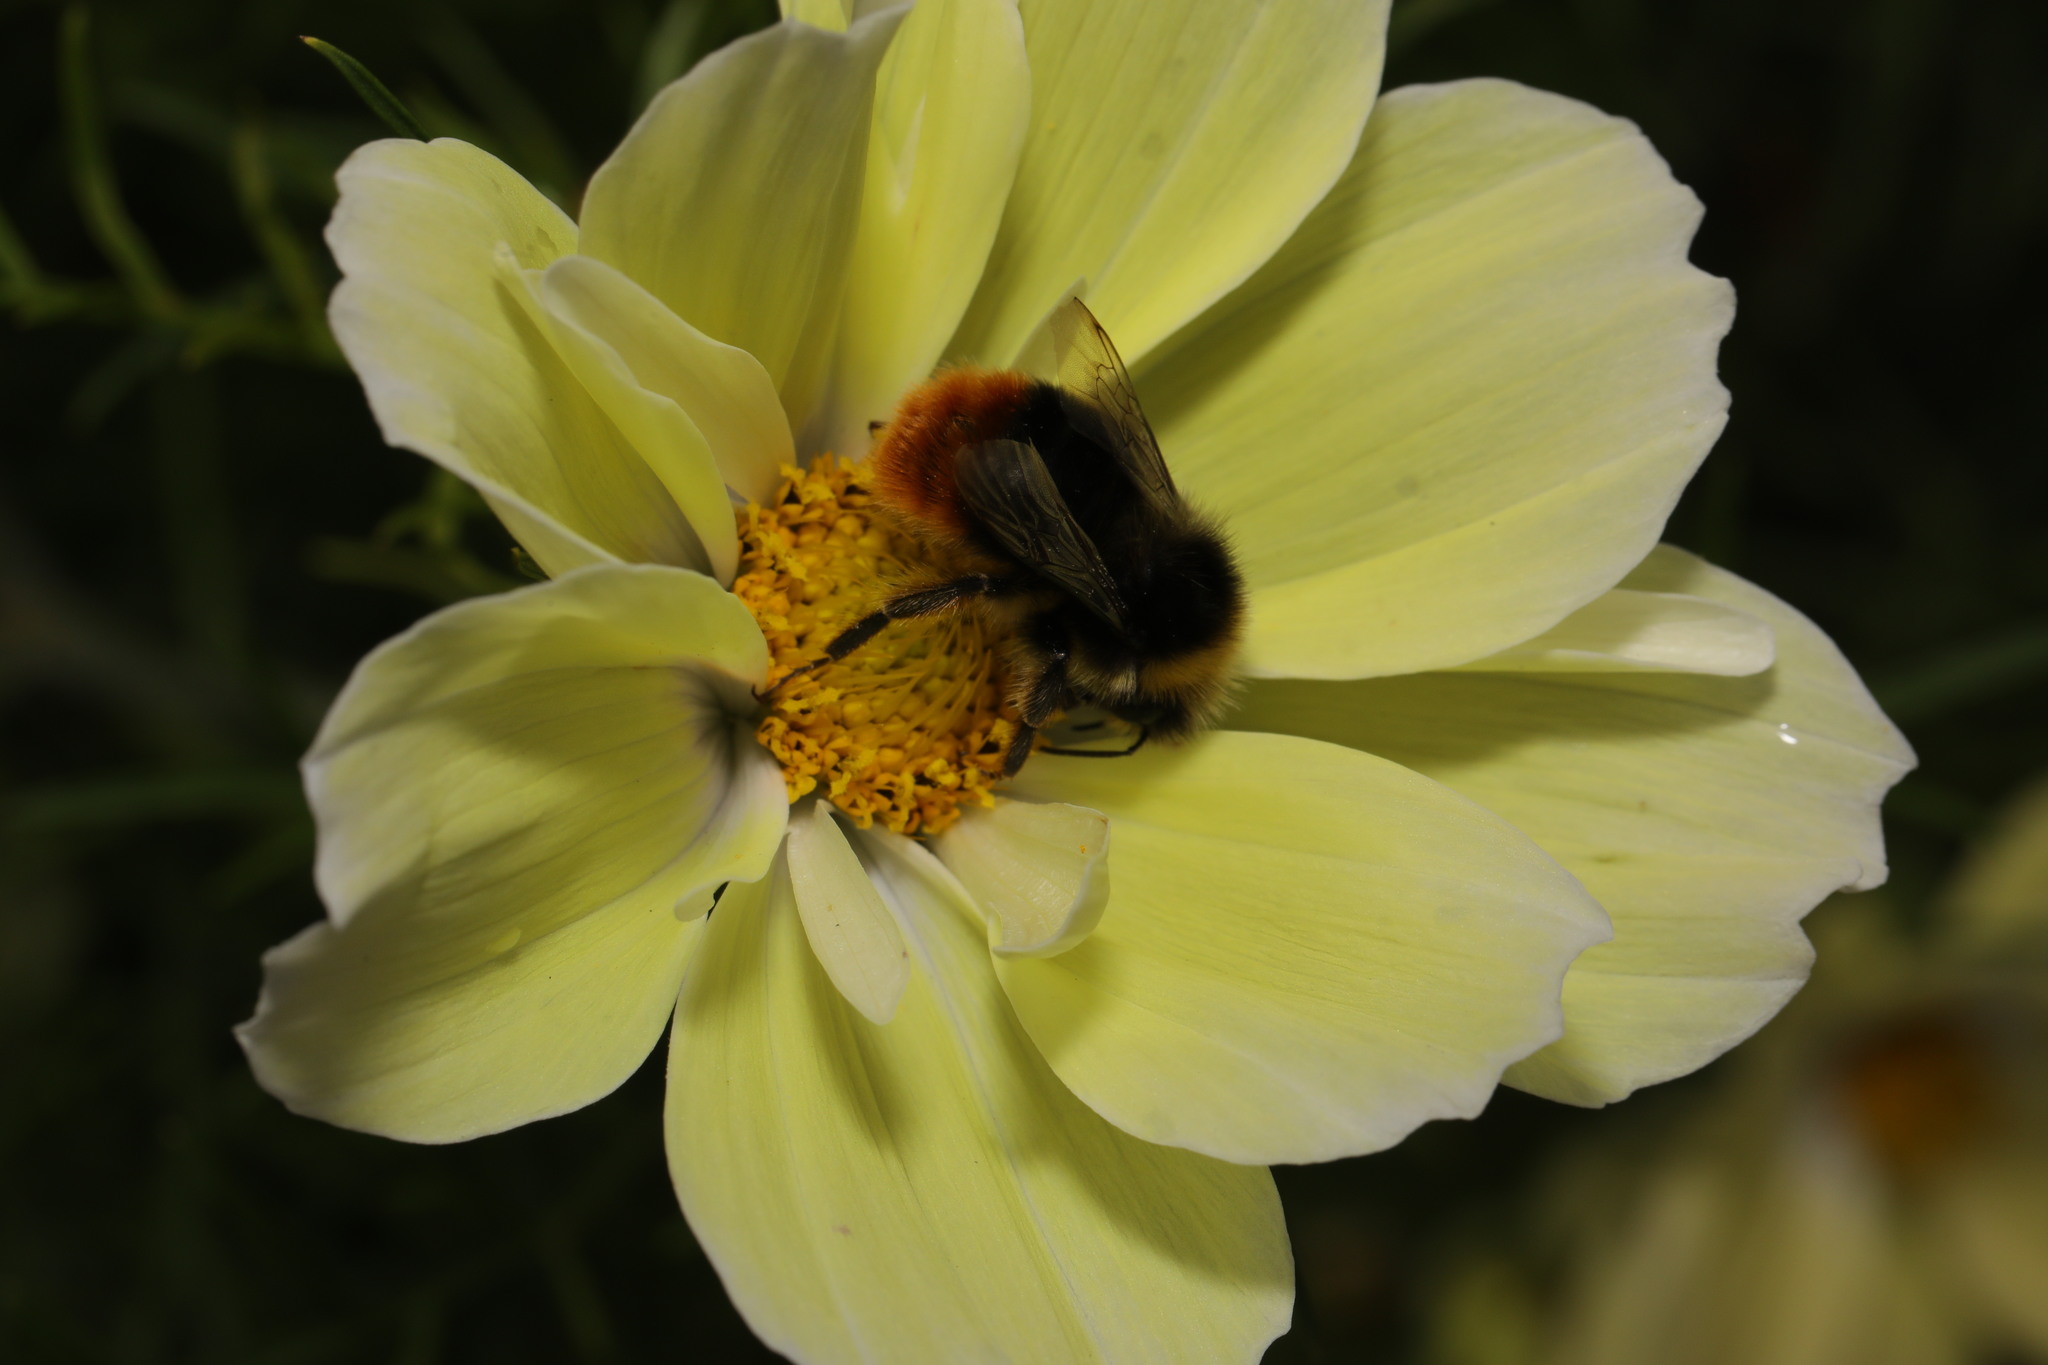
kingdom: Animalia
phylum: Arthropoda
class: Insecta
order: Hymenoptera
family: Apidae
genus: Bombus
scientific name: Bombus lapidarius
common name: Large red-tailed humble-bee
